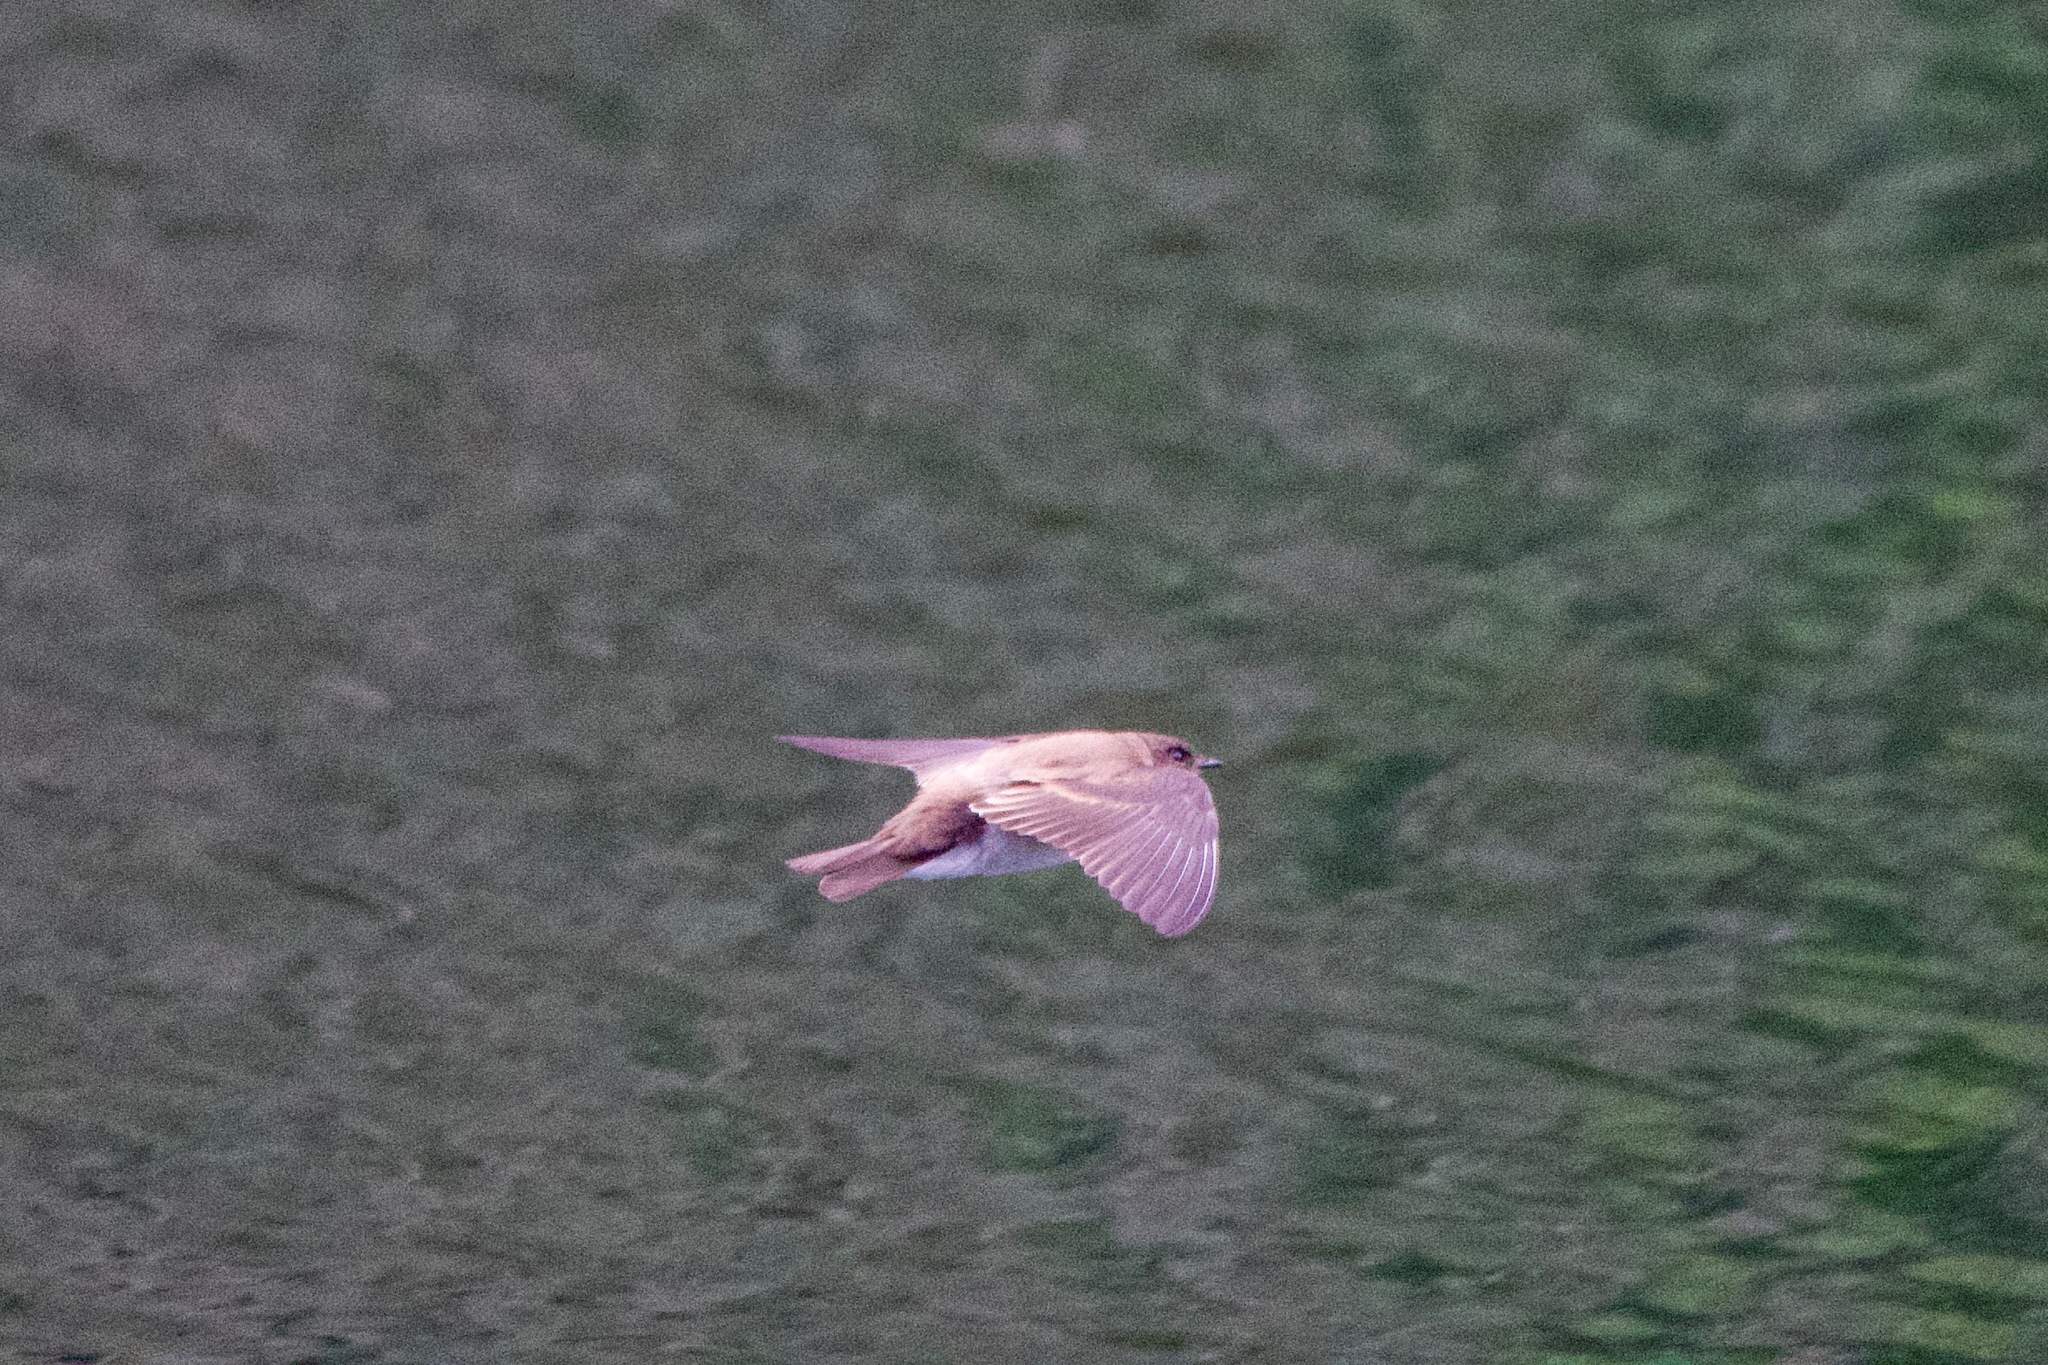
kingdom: Animalia
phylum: Chordata
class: Aves
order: Passeriformes
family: Hirundinidae
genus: Stelgidopteryx
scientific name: Stelgidopteryx serripennis
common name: Northern rough-winged swallow
